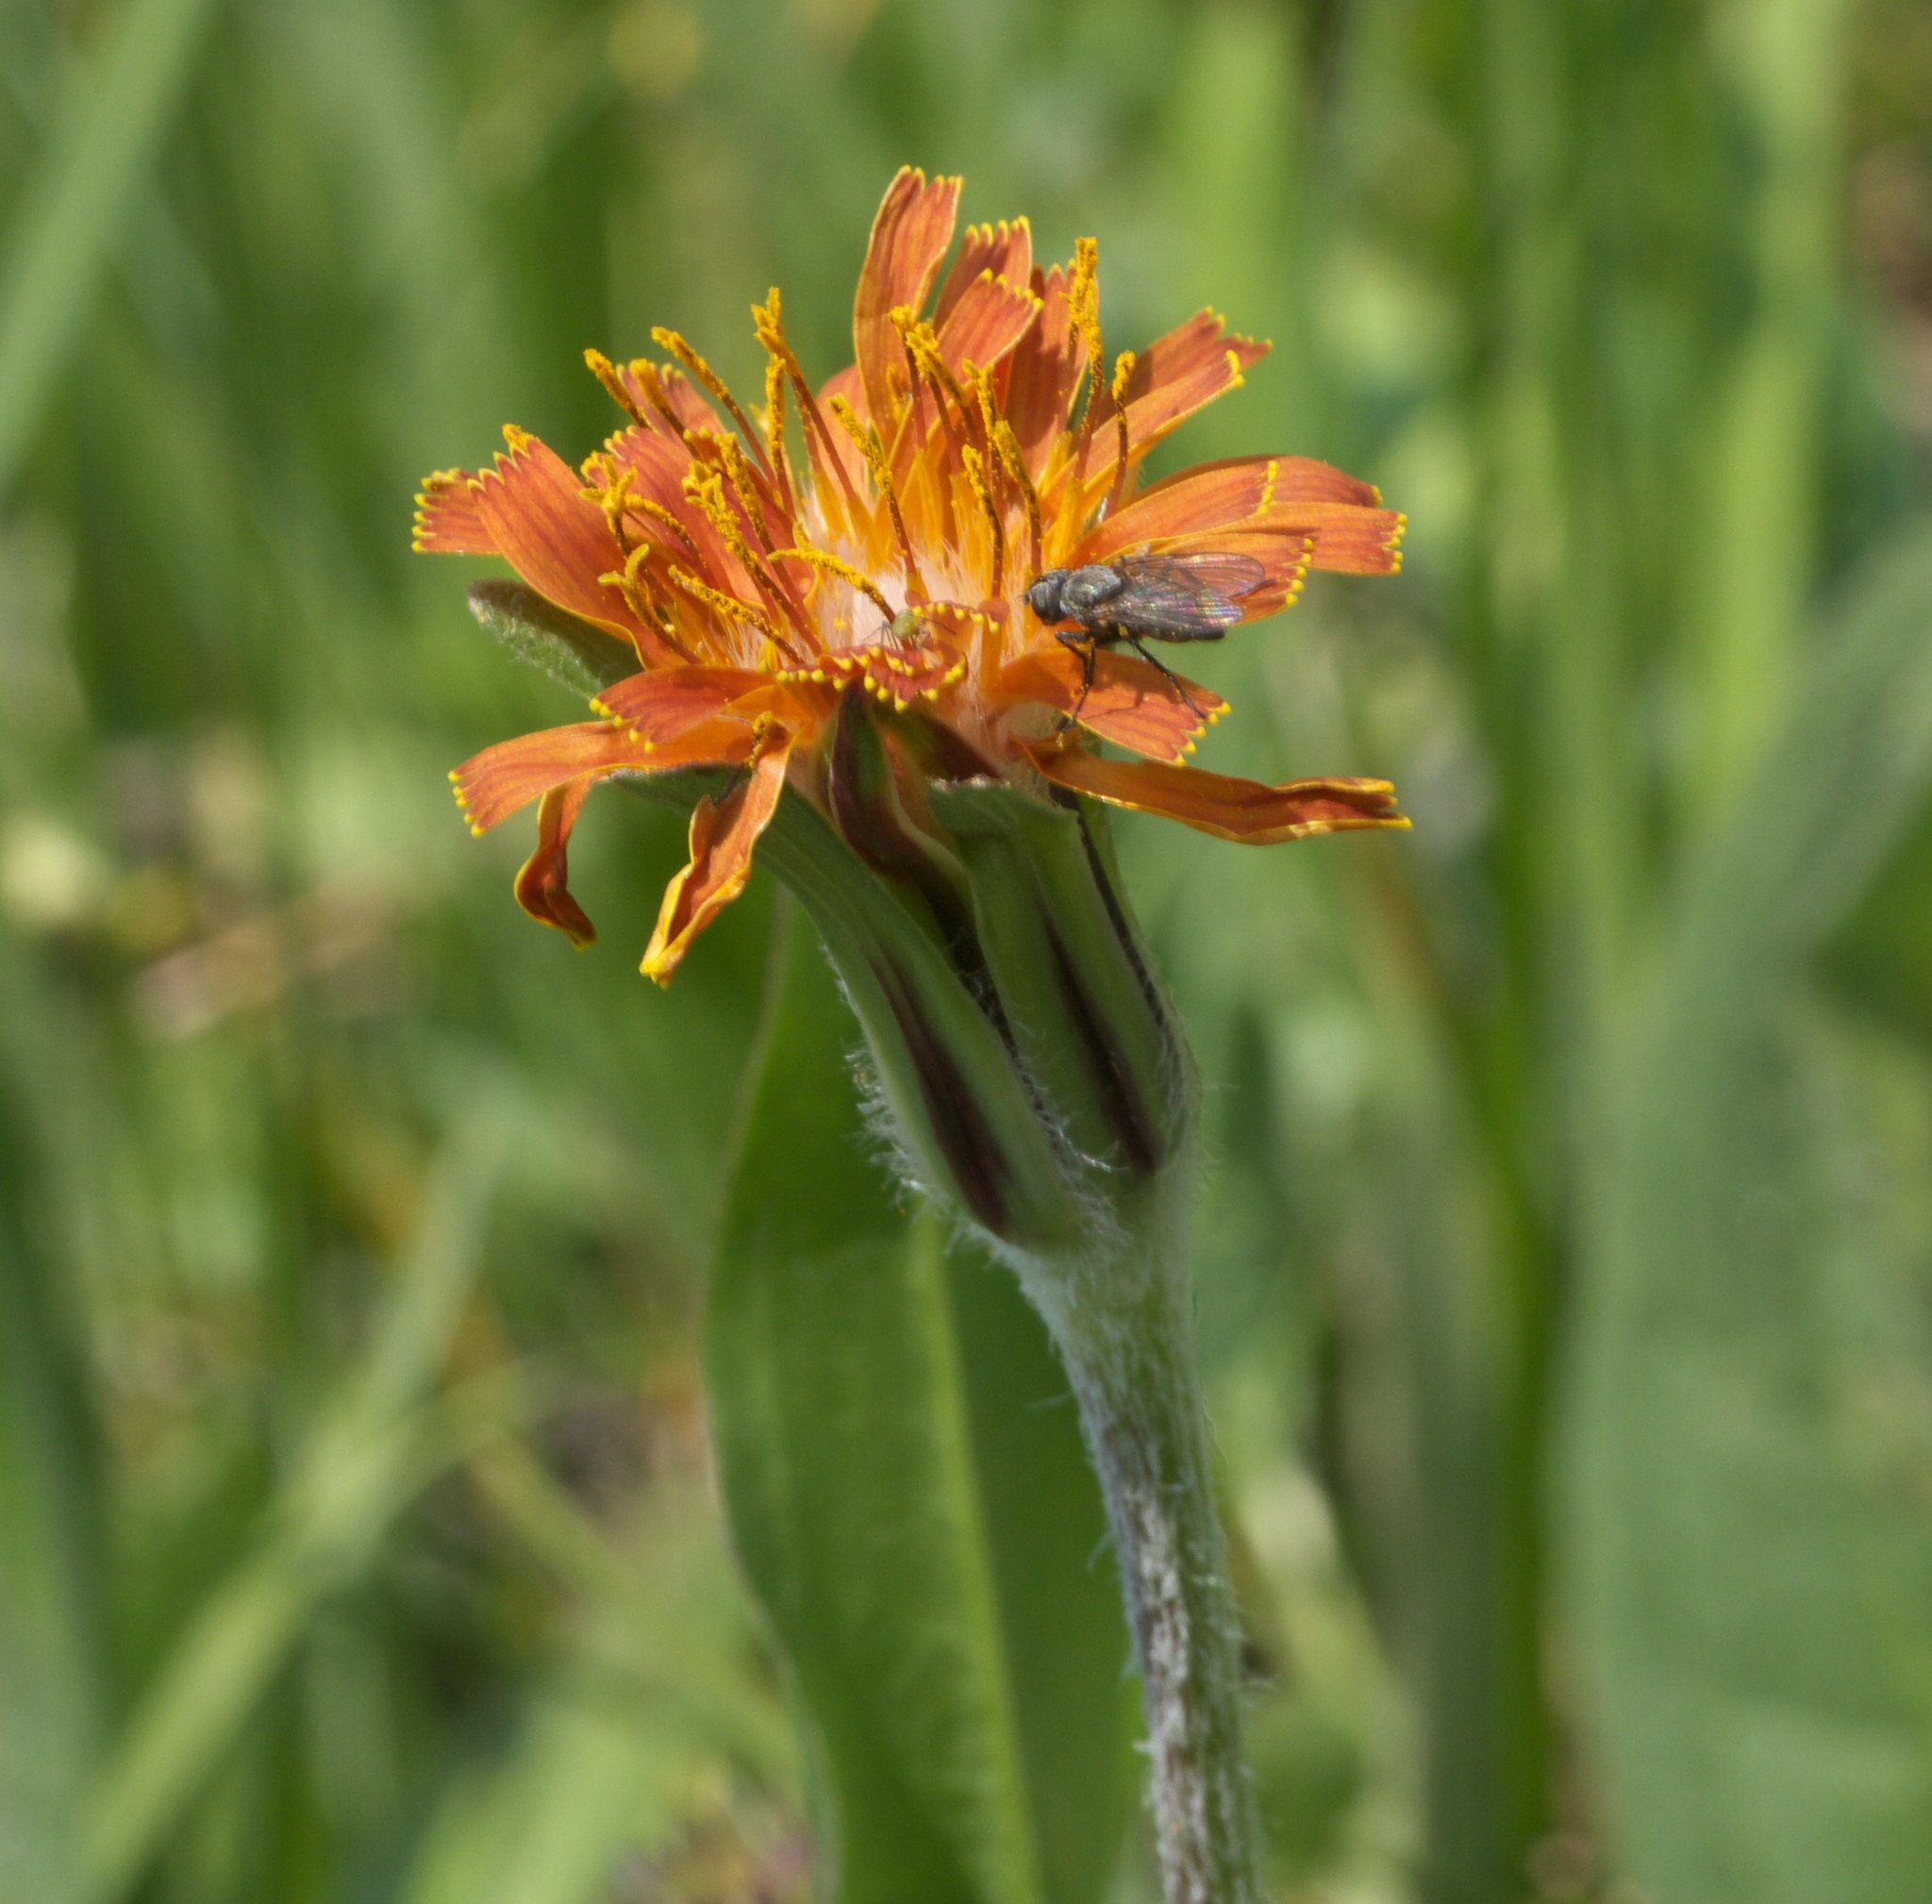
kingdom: Plantae
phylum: Tracheophyta
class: Magnoliopsida
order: Asterales
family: Asteraceae
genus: Agoseris
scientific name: Agoseris aurantiaca
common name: Mountain agoseris
